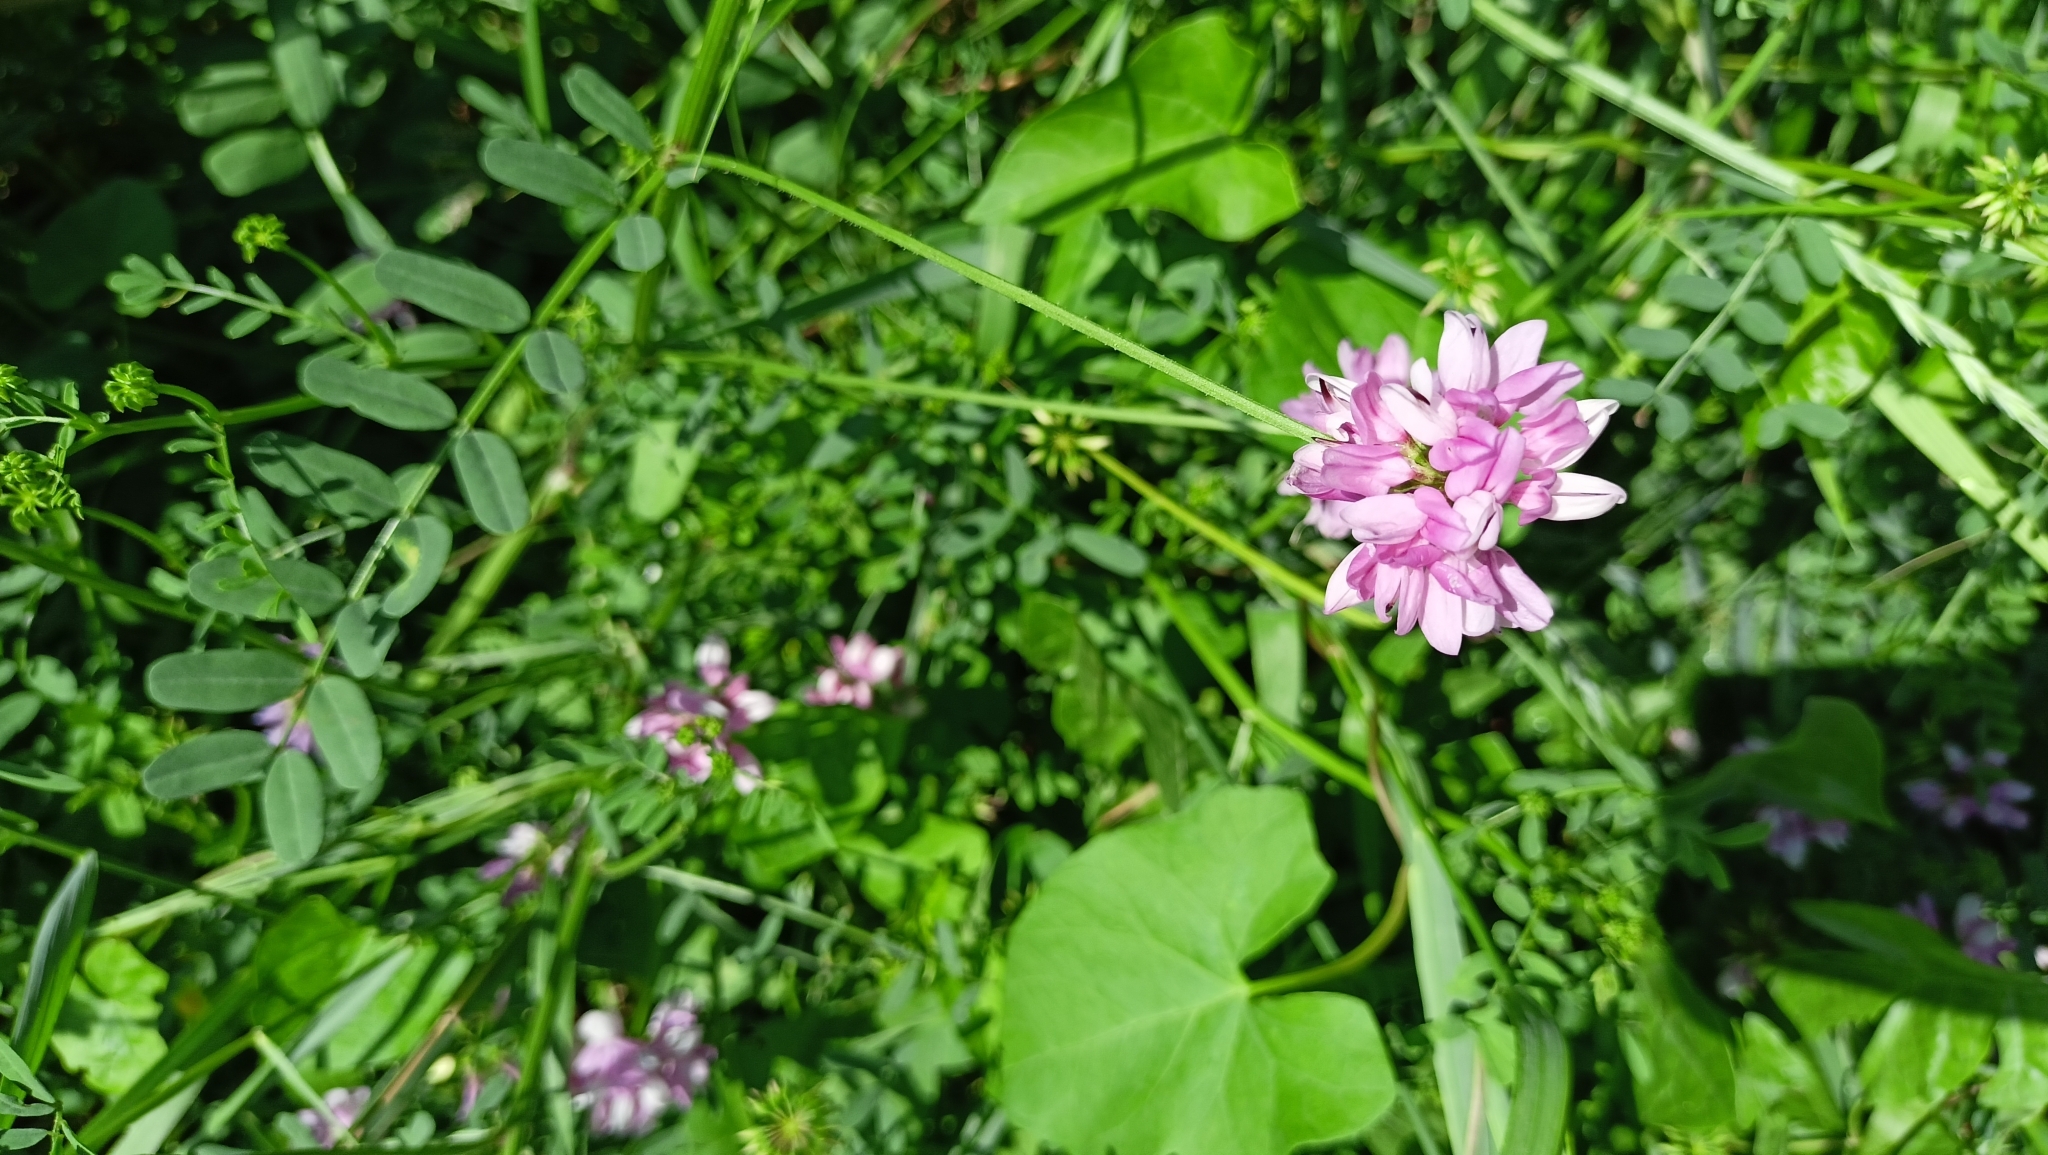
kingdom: Plantae
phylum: Tracheophyta
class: Magnoliopsida
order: Fabales
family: Fabaceae
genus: Coronilla
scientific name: Coronilla varia
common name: Crownvetch
